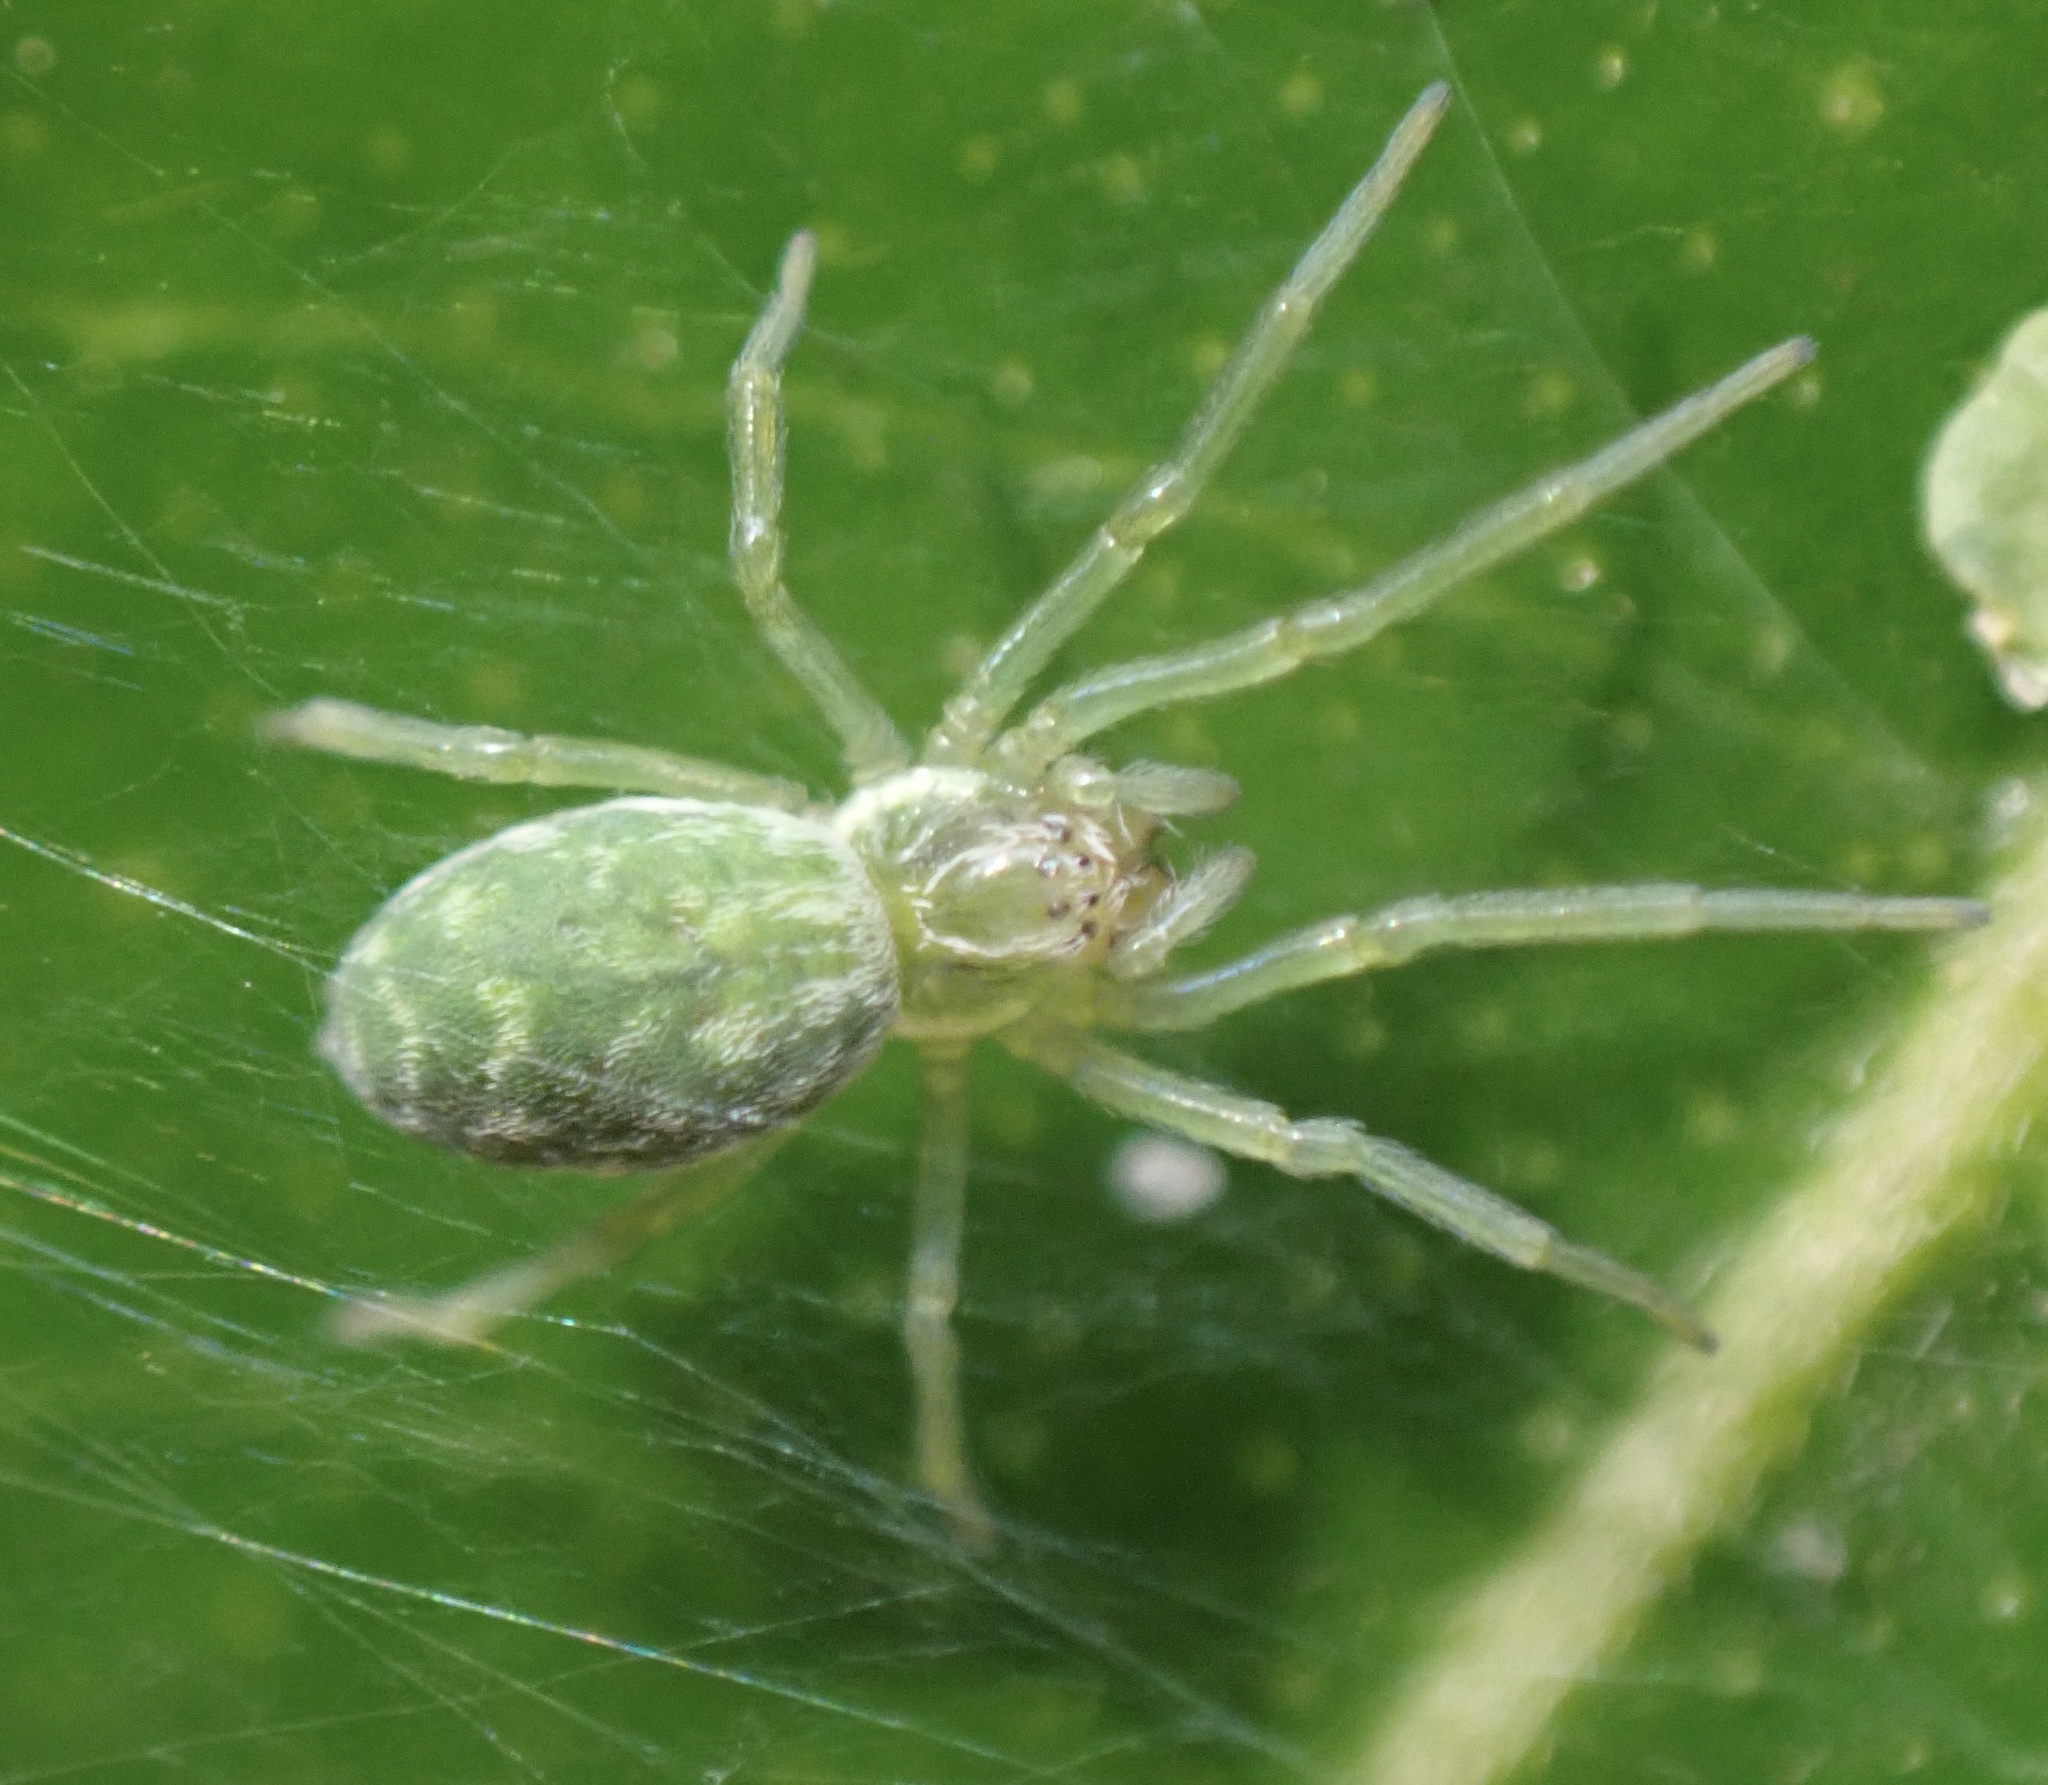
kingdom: Animalia
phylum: Arthropoda
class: Arachnida
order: Araneae
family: Dictynidae
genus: Nigma
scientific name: Nigma walckenaeri
